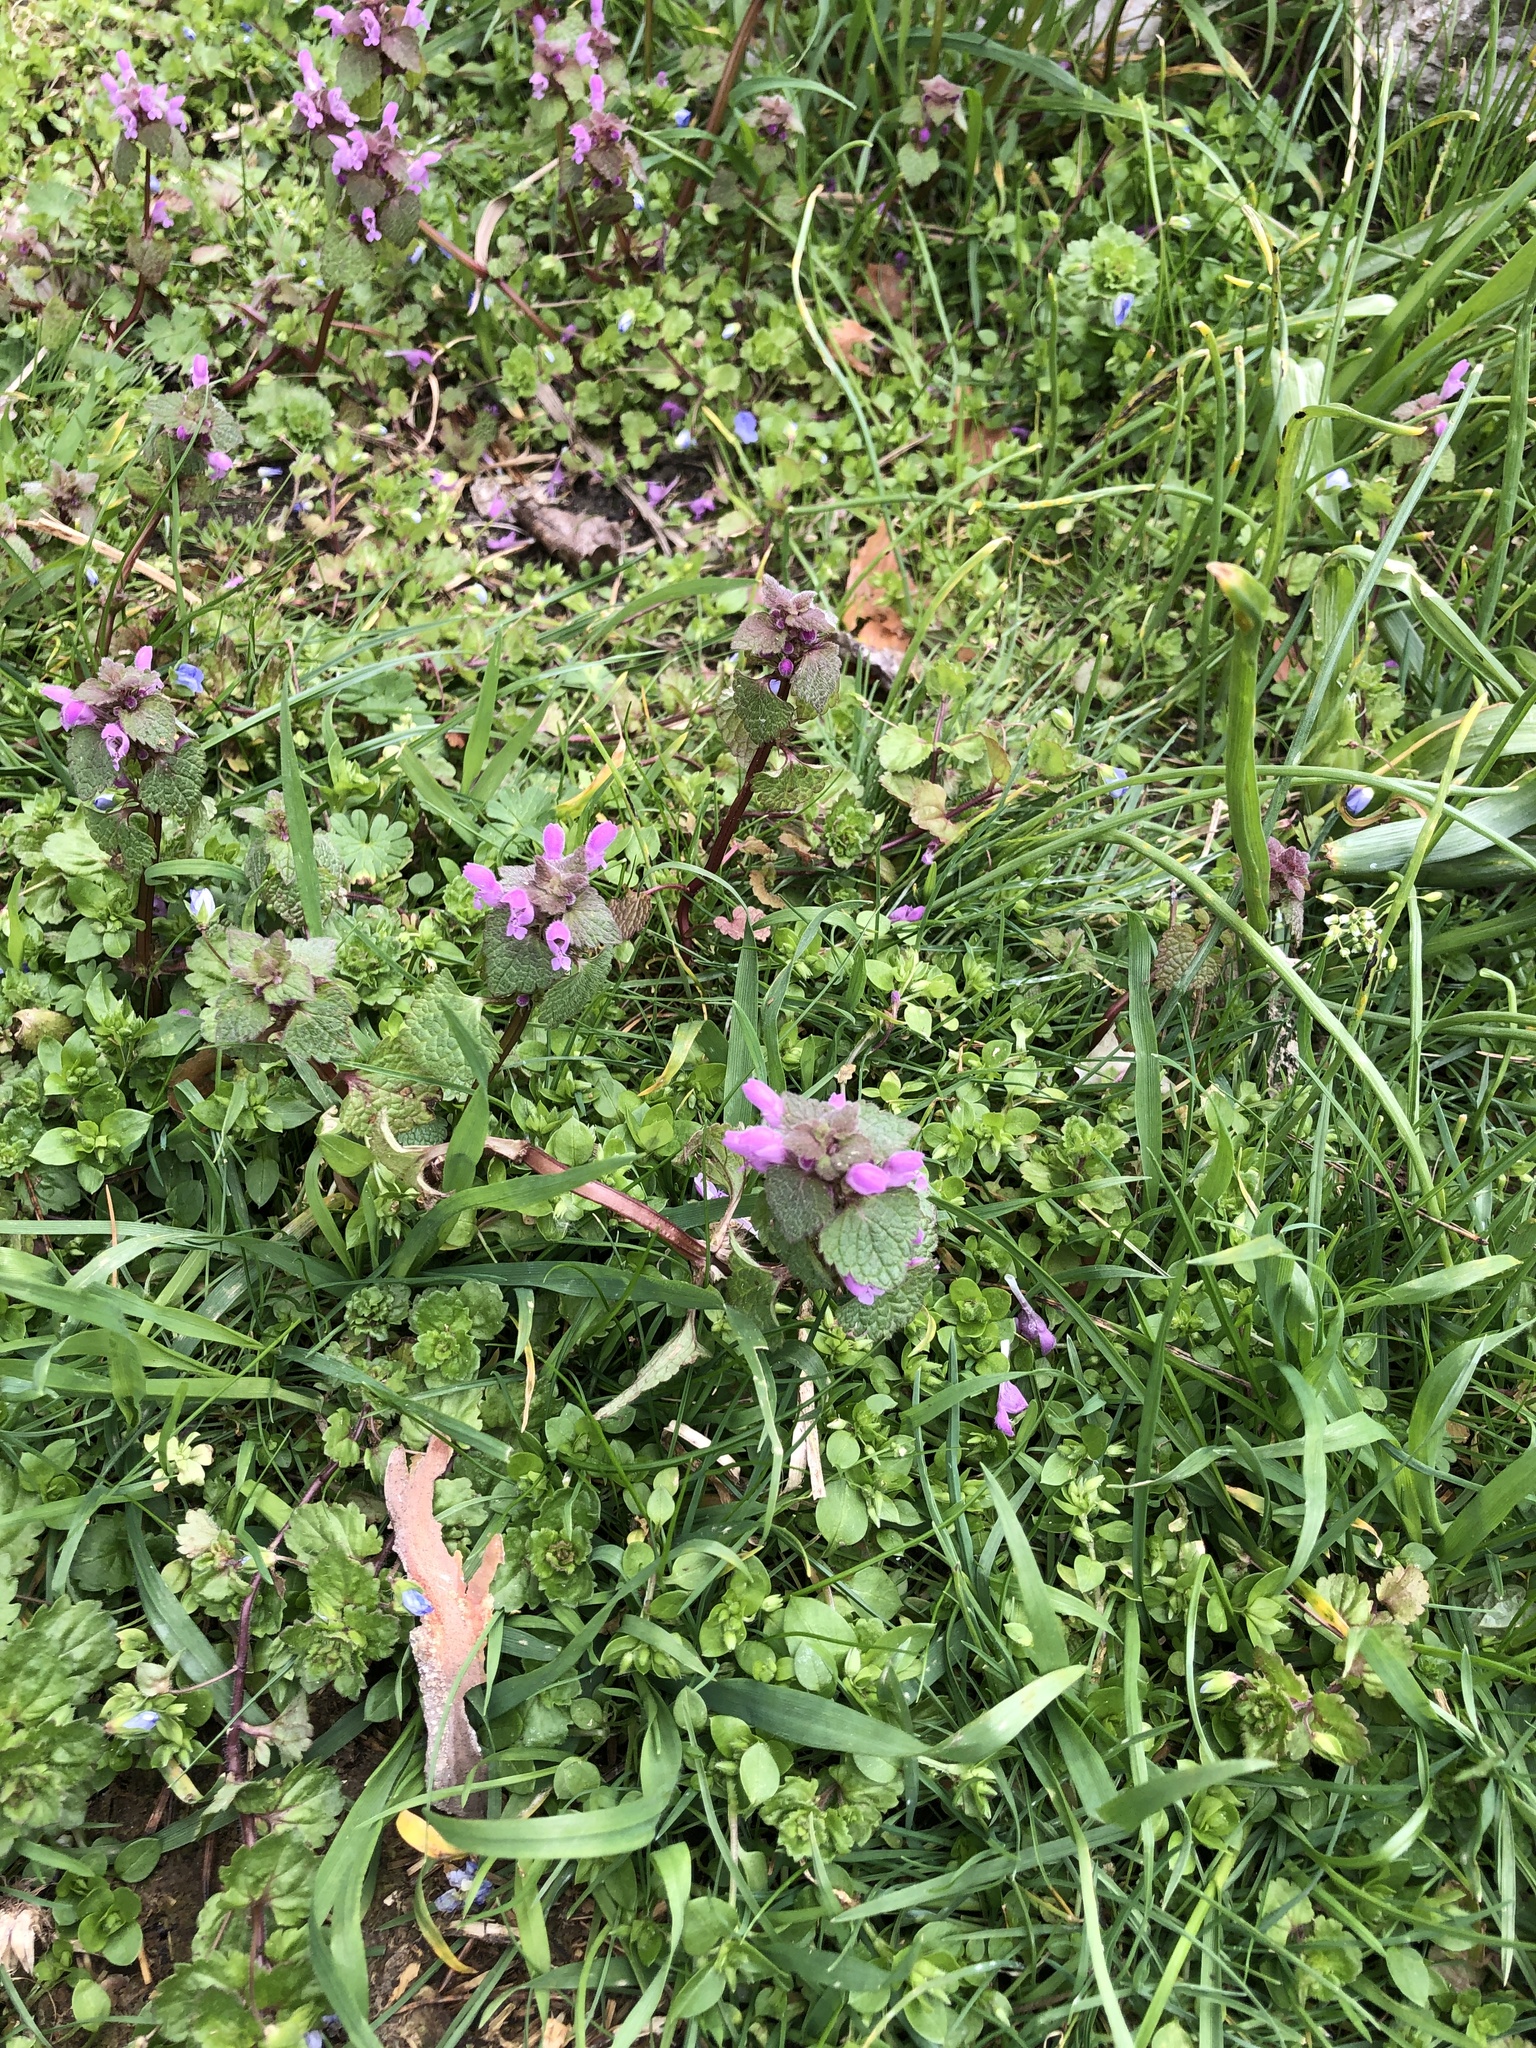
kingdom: Plantae
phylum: Tracheophyta
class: Magnoliopsida
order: Lamiales
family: Lamiaceae
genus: Lamium
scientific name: Lamium purpureum
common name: Red dead-nettle
